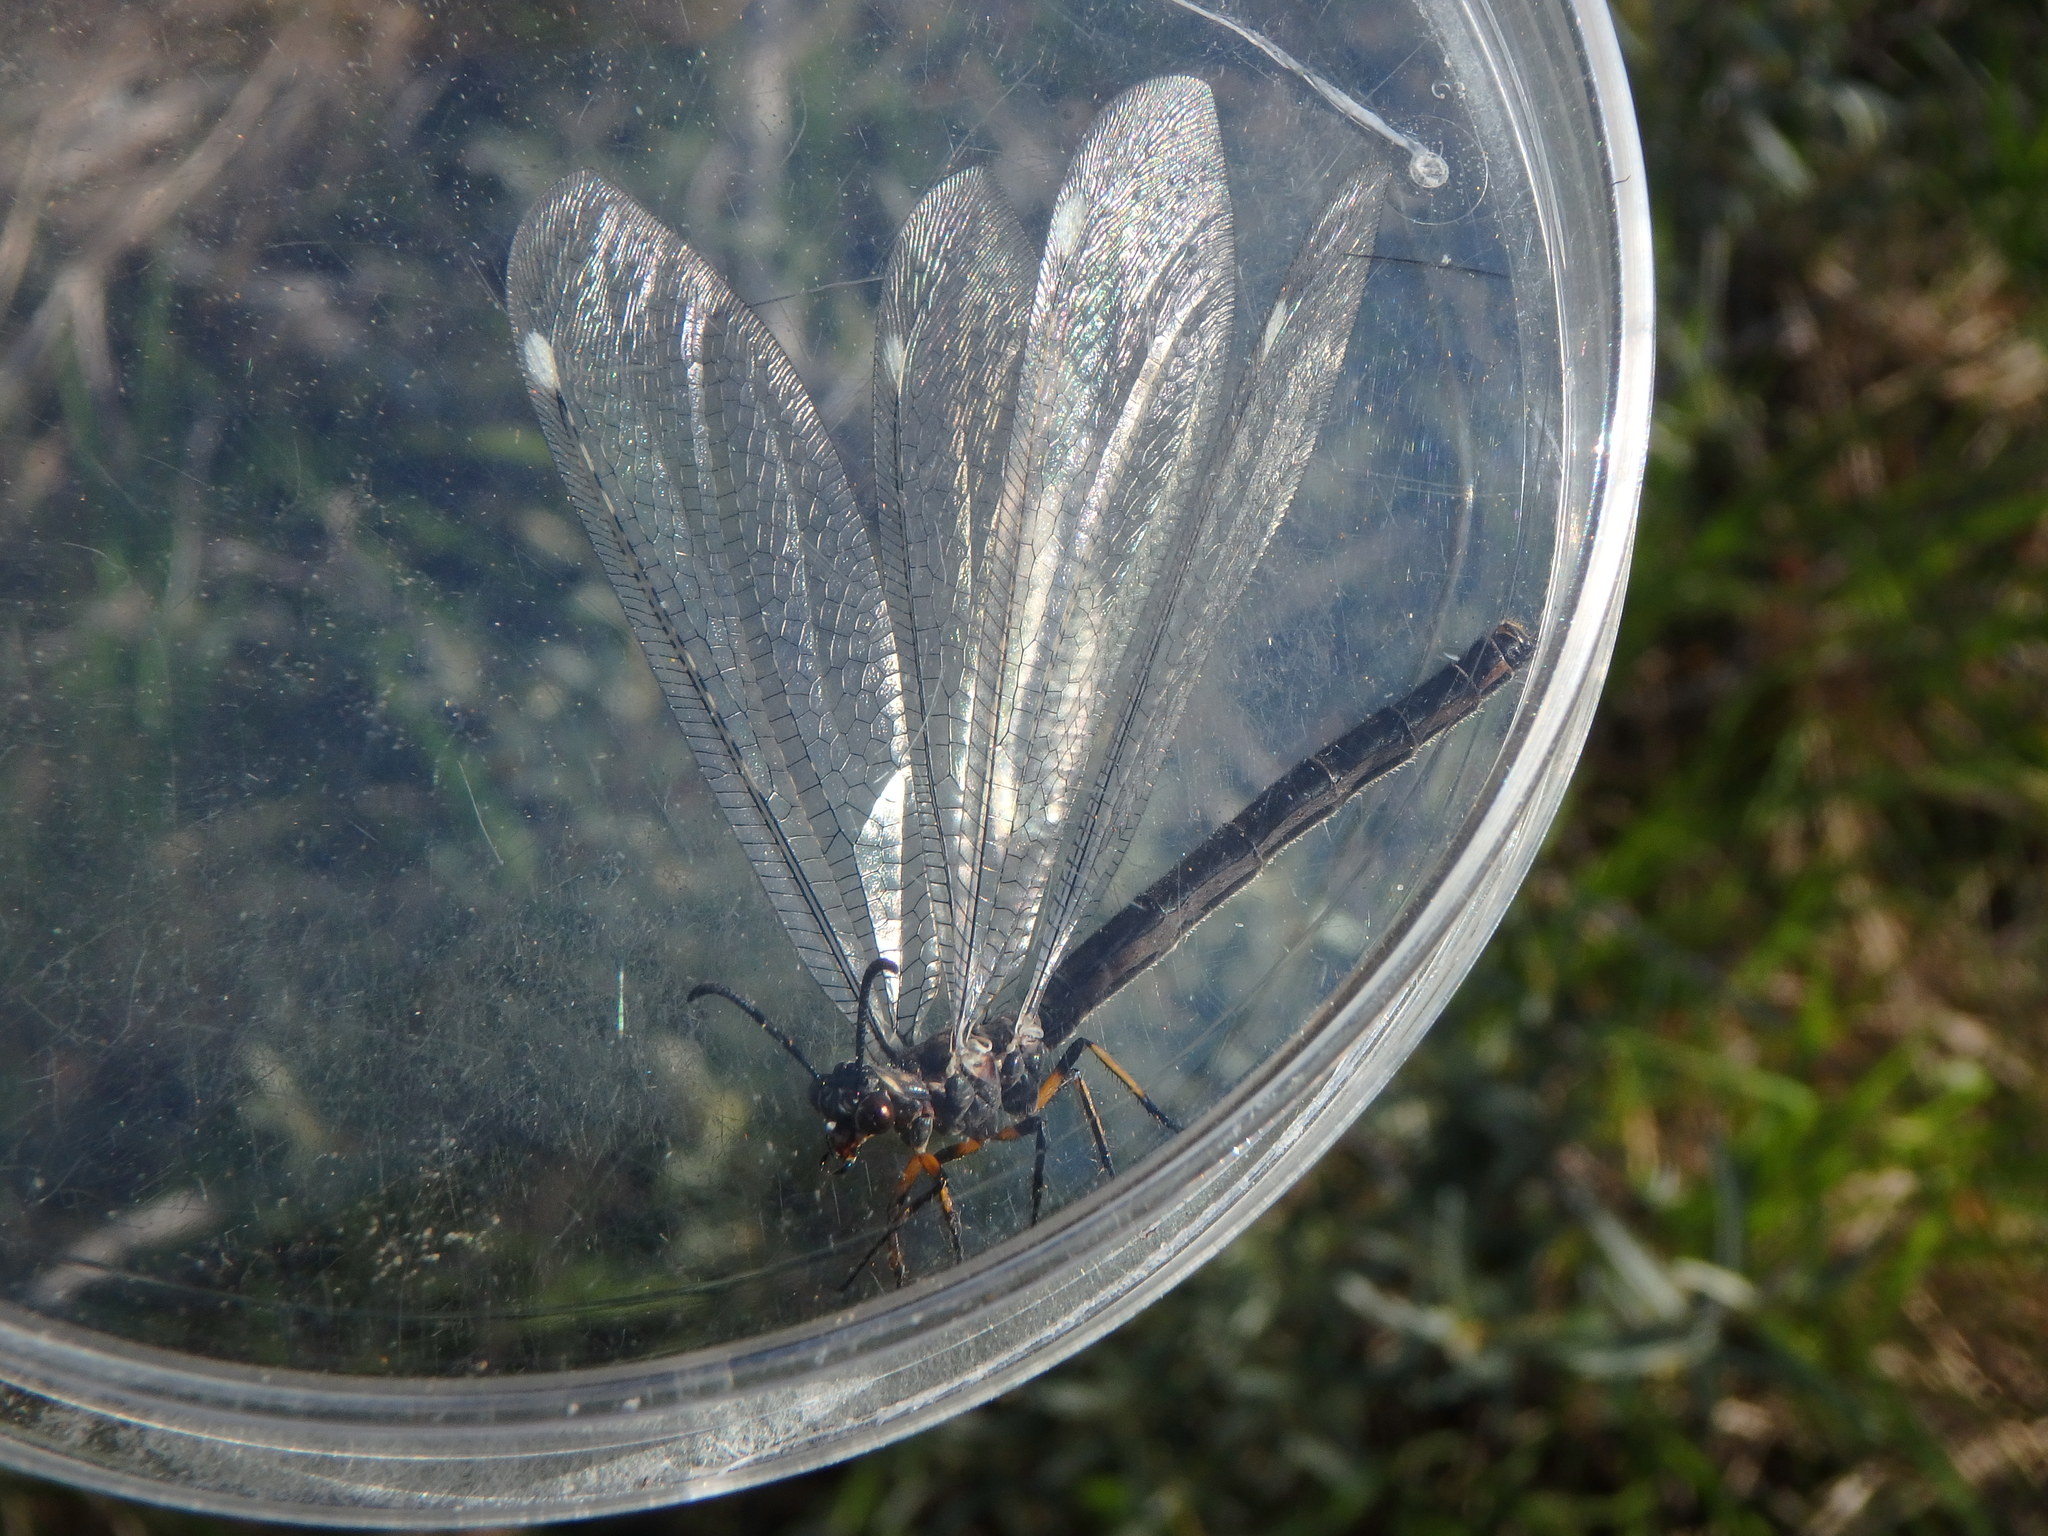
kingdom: Animalia
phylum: Arthropoda
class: Insecta
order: Neuroptera
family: Myrmeleontidae
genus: Myrmeleon
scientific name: Myrmeleon formicarius
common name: Ant-lion
